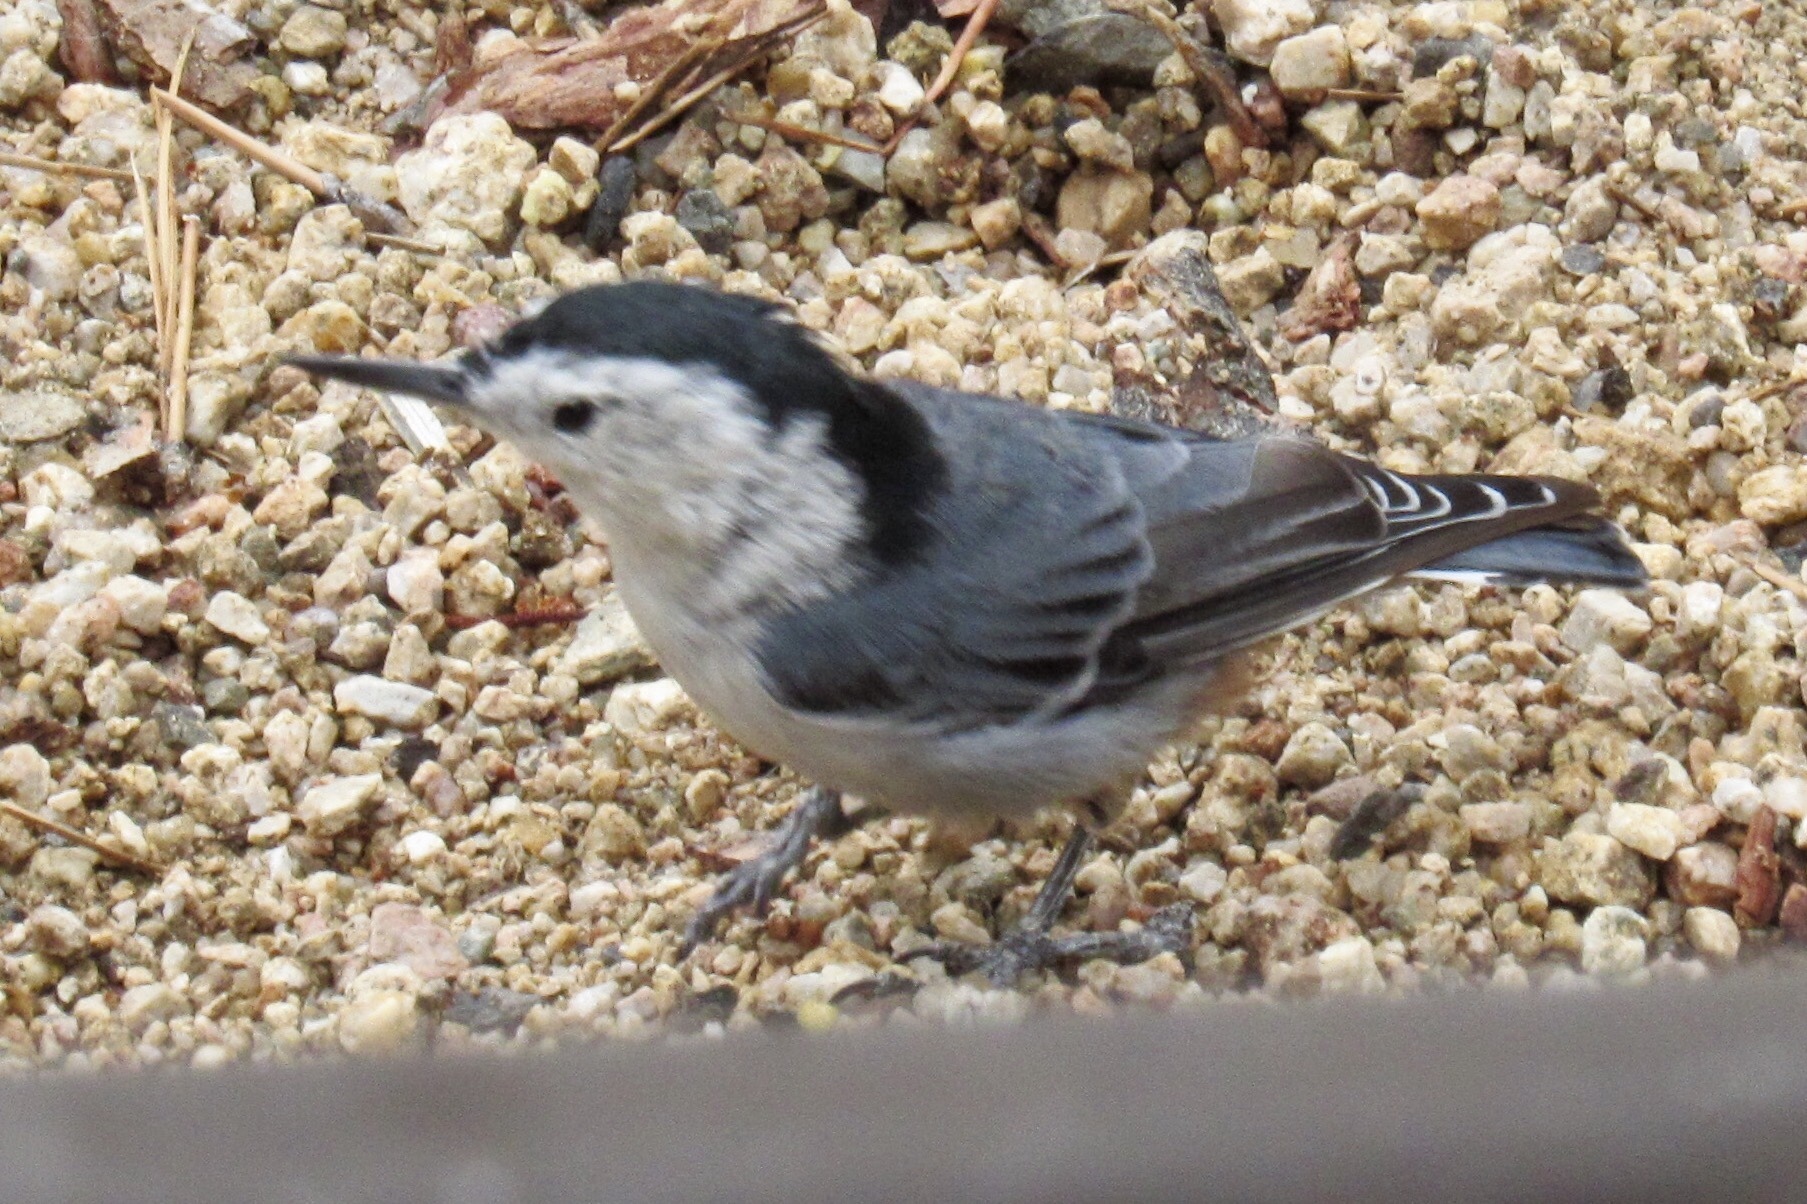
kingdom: Animalia
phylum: Chordata
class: Aves
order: Passeriformes
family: Sittidae
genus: Sitta
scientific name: Sitta carolinensis
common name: White-breasted nuthatch
